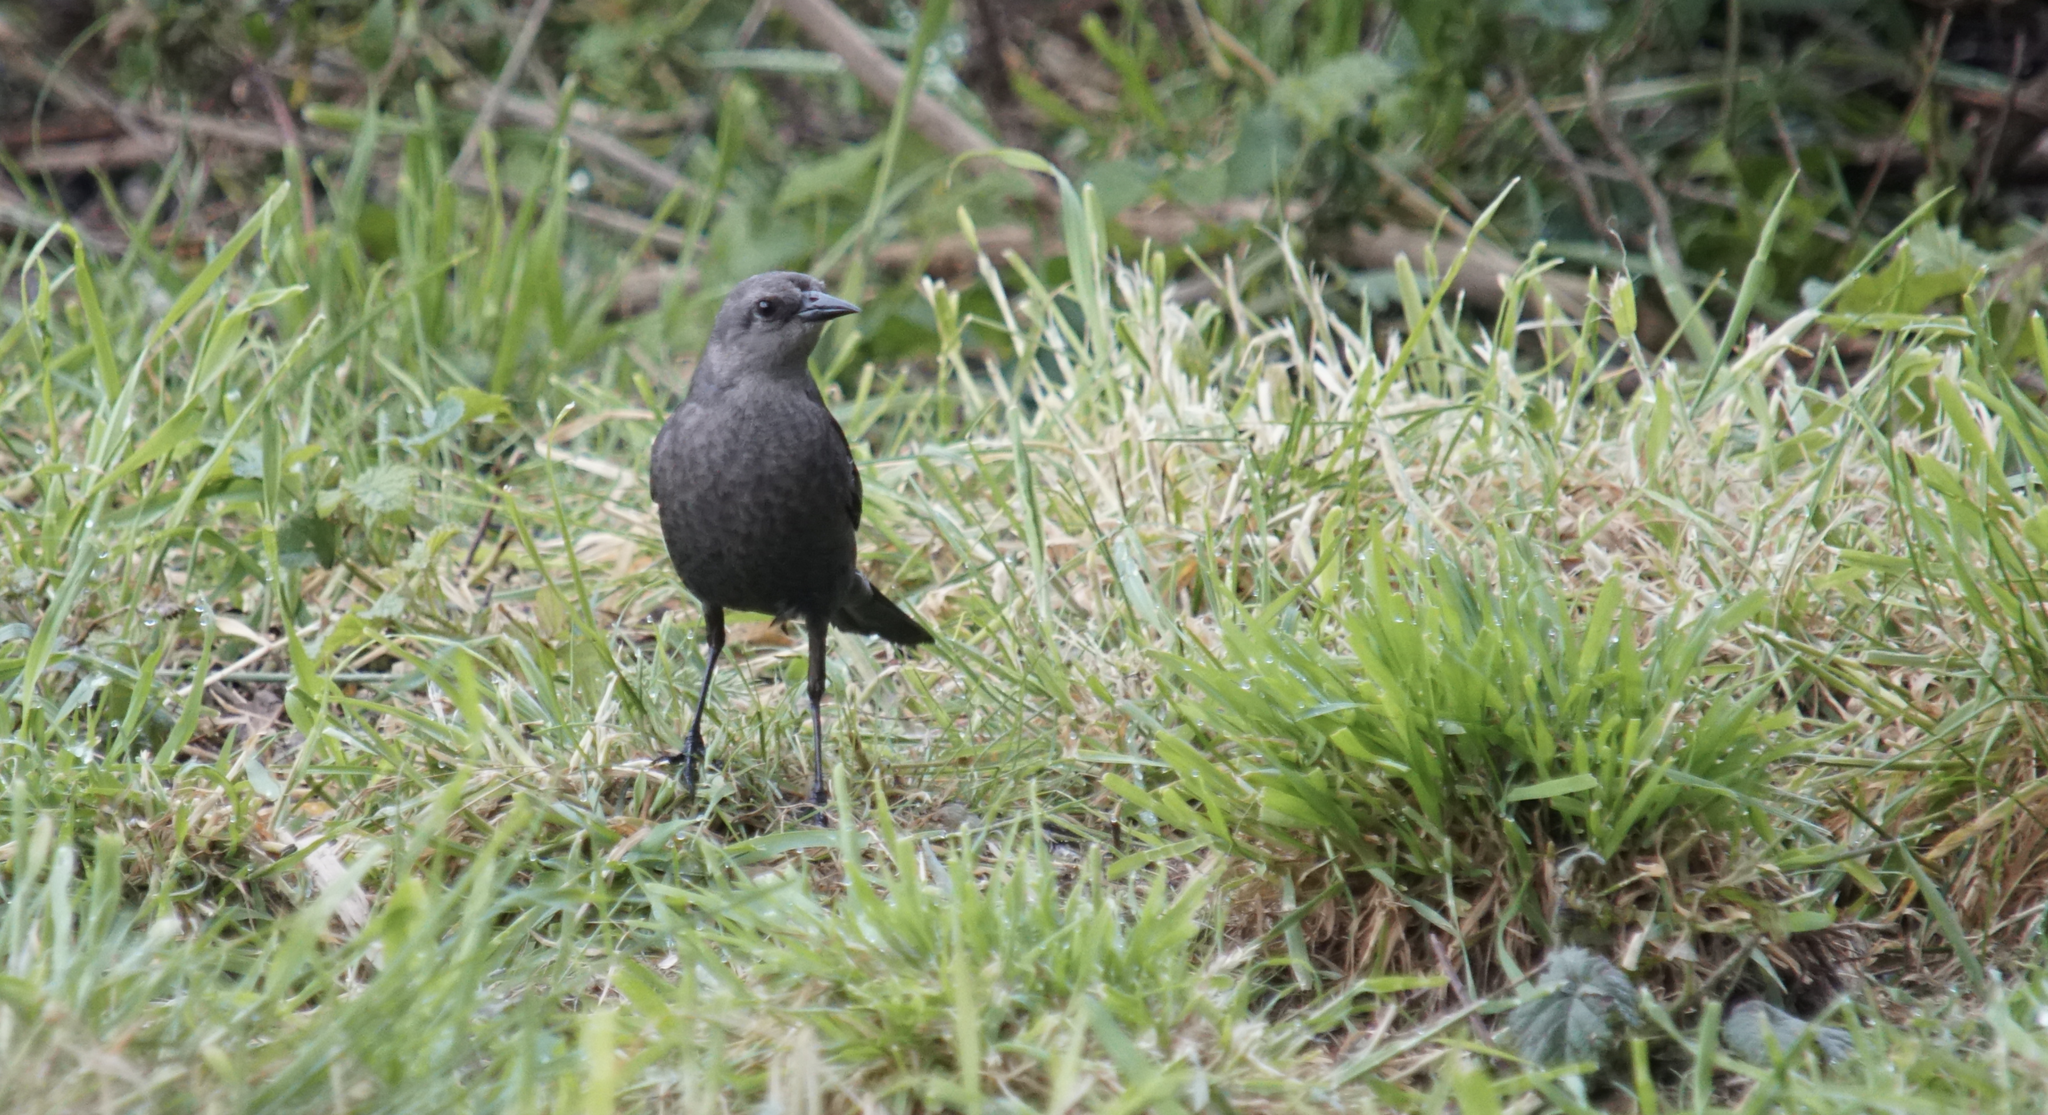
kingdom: Animalia
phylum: Chordata
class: Aves
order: Passeriformes
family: Icteridae
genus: Euphagus
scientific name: Euphagus cyanocephalus
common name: Brewer's blackbird
